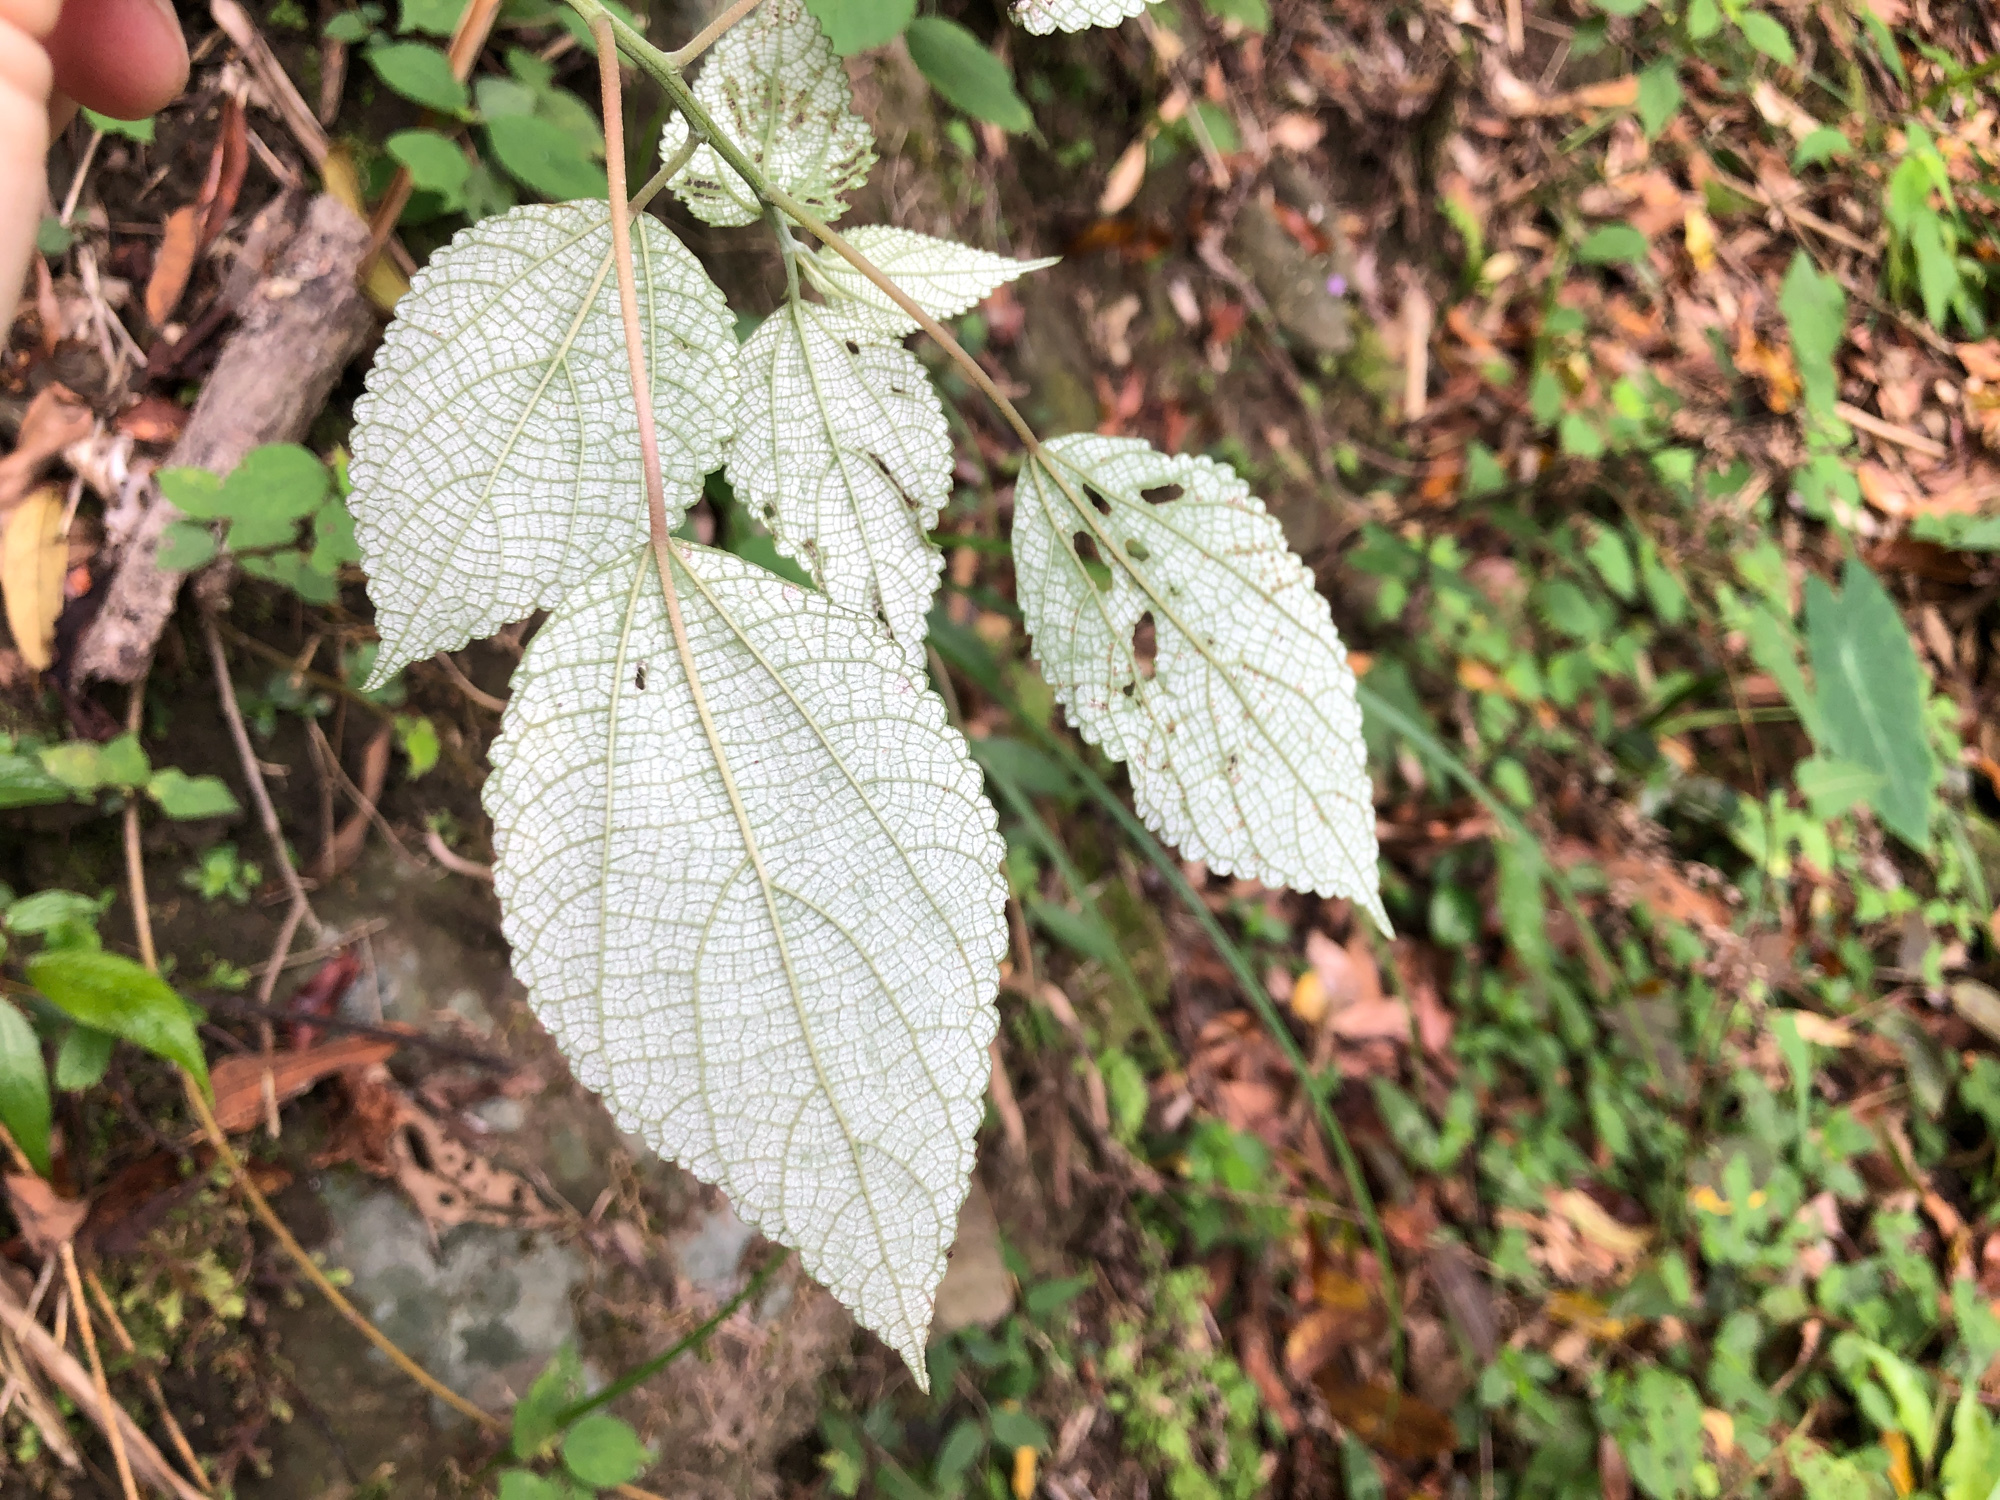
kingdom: Plantae
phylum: Tracheophyta
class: Magnoliopsida
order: Rosales
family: Urticaceae
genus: Boehmeria
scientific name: Boehmeria nivea
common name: Ramie chinese grass
